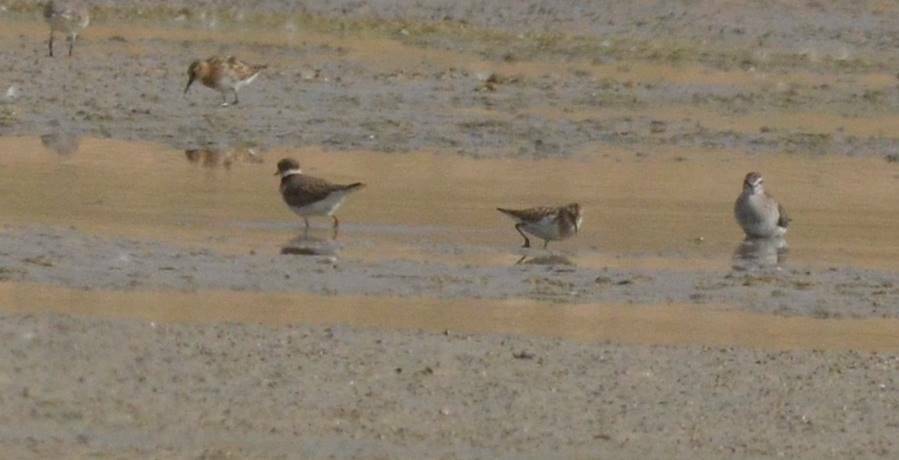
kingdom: Animalia
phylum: Chordata
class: Aves
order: Charadriiformes
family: Charadriidae
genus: Charadrius
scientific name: Charadrius hiaticula
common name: Common ringed plover
